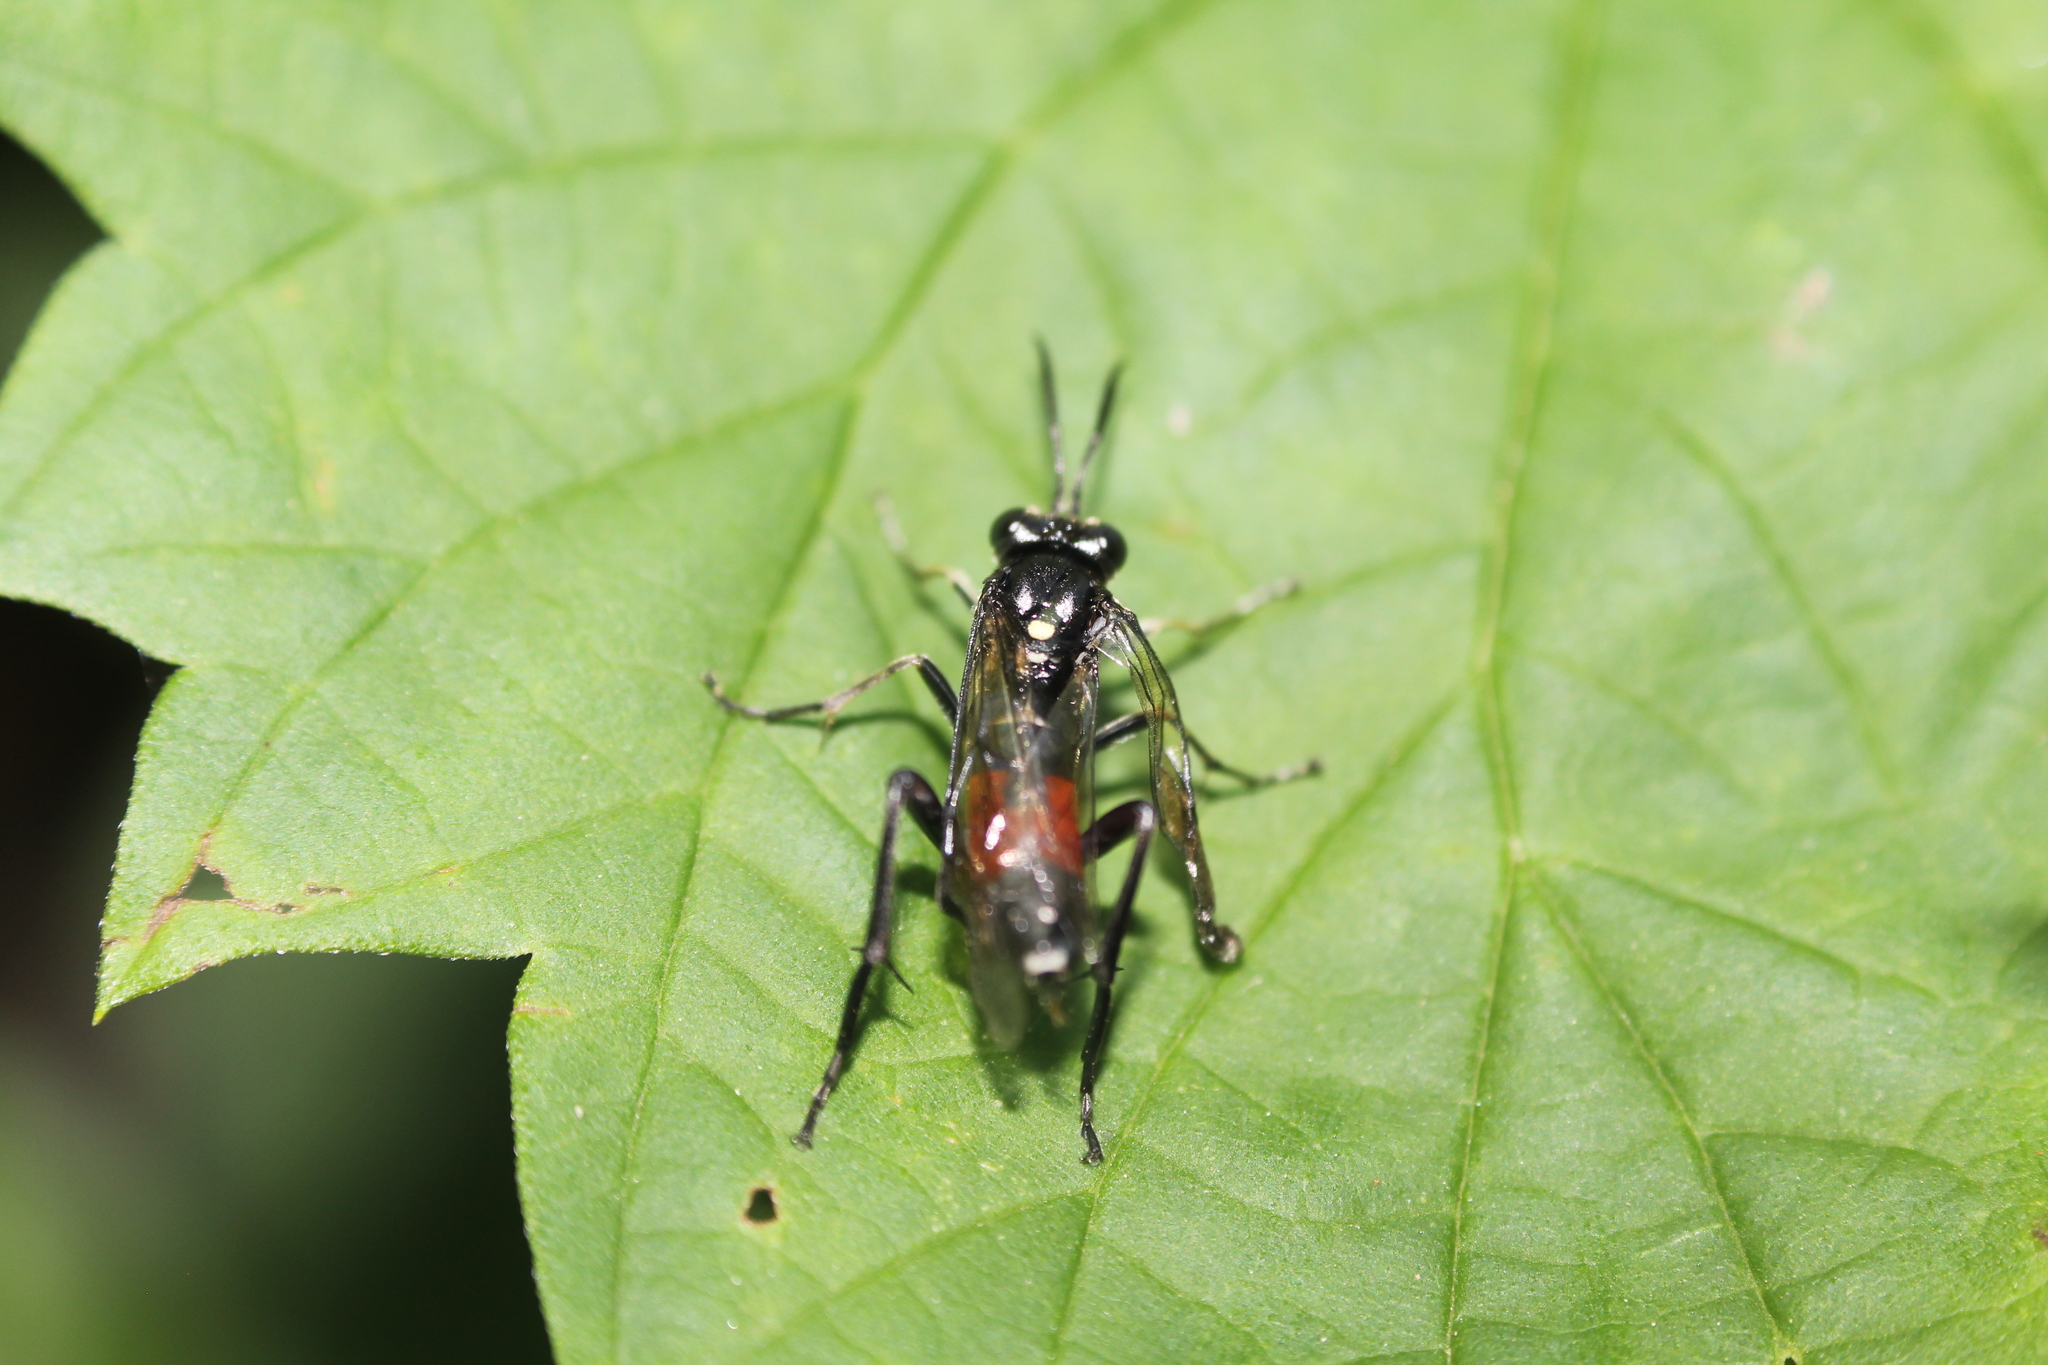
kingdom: Animalia
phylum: Arthropoda
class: Insecta
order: Hymenoptera
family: Tenthredinidae
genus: Macrophya
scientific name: Macrophya militaris
